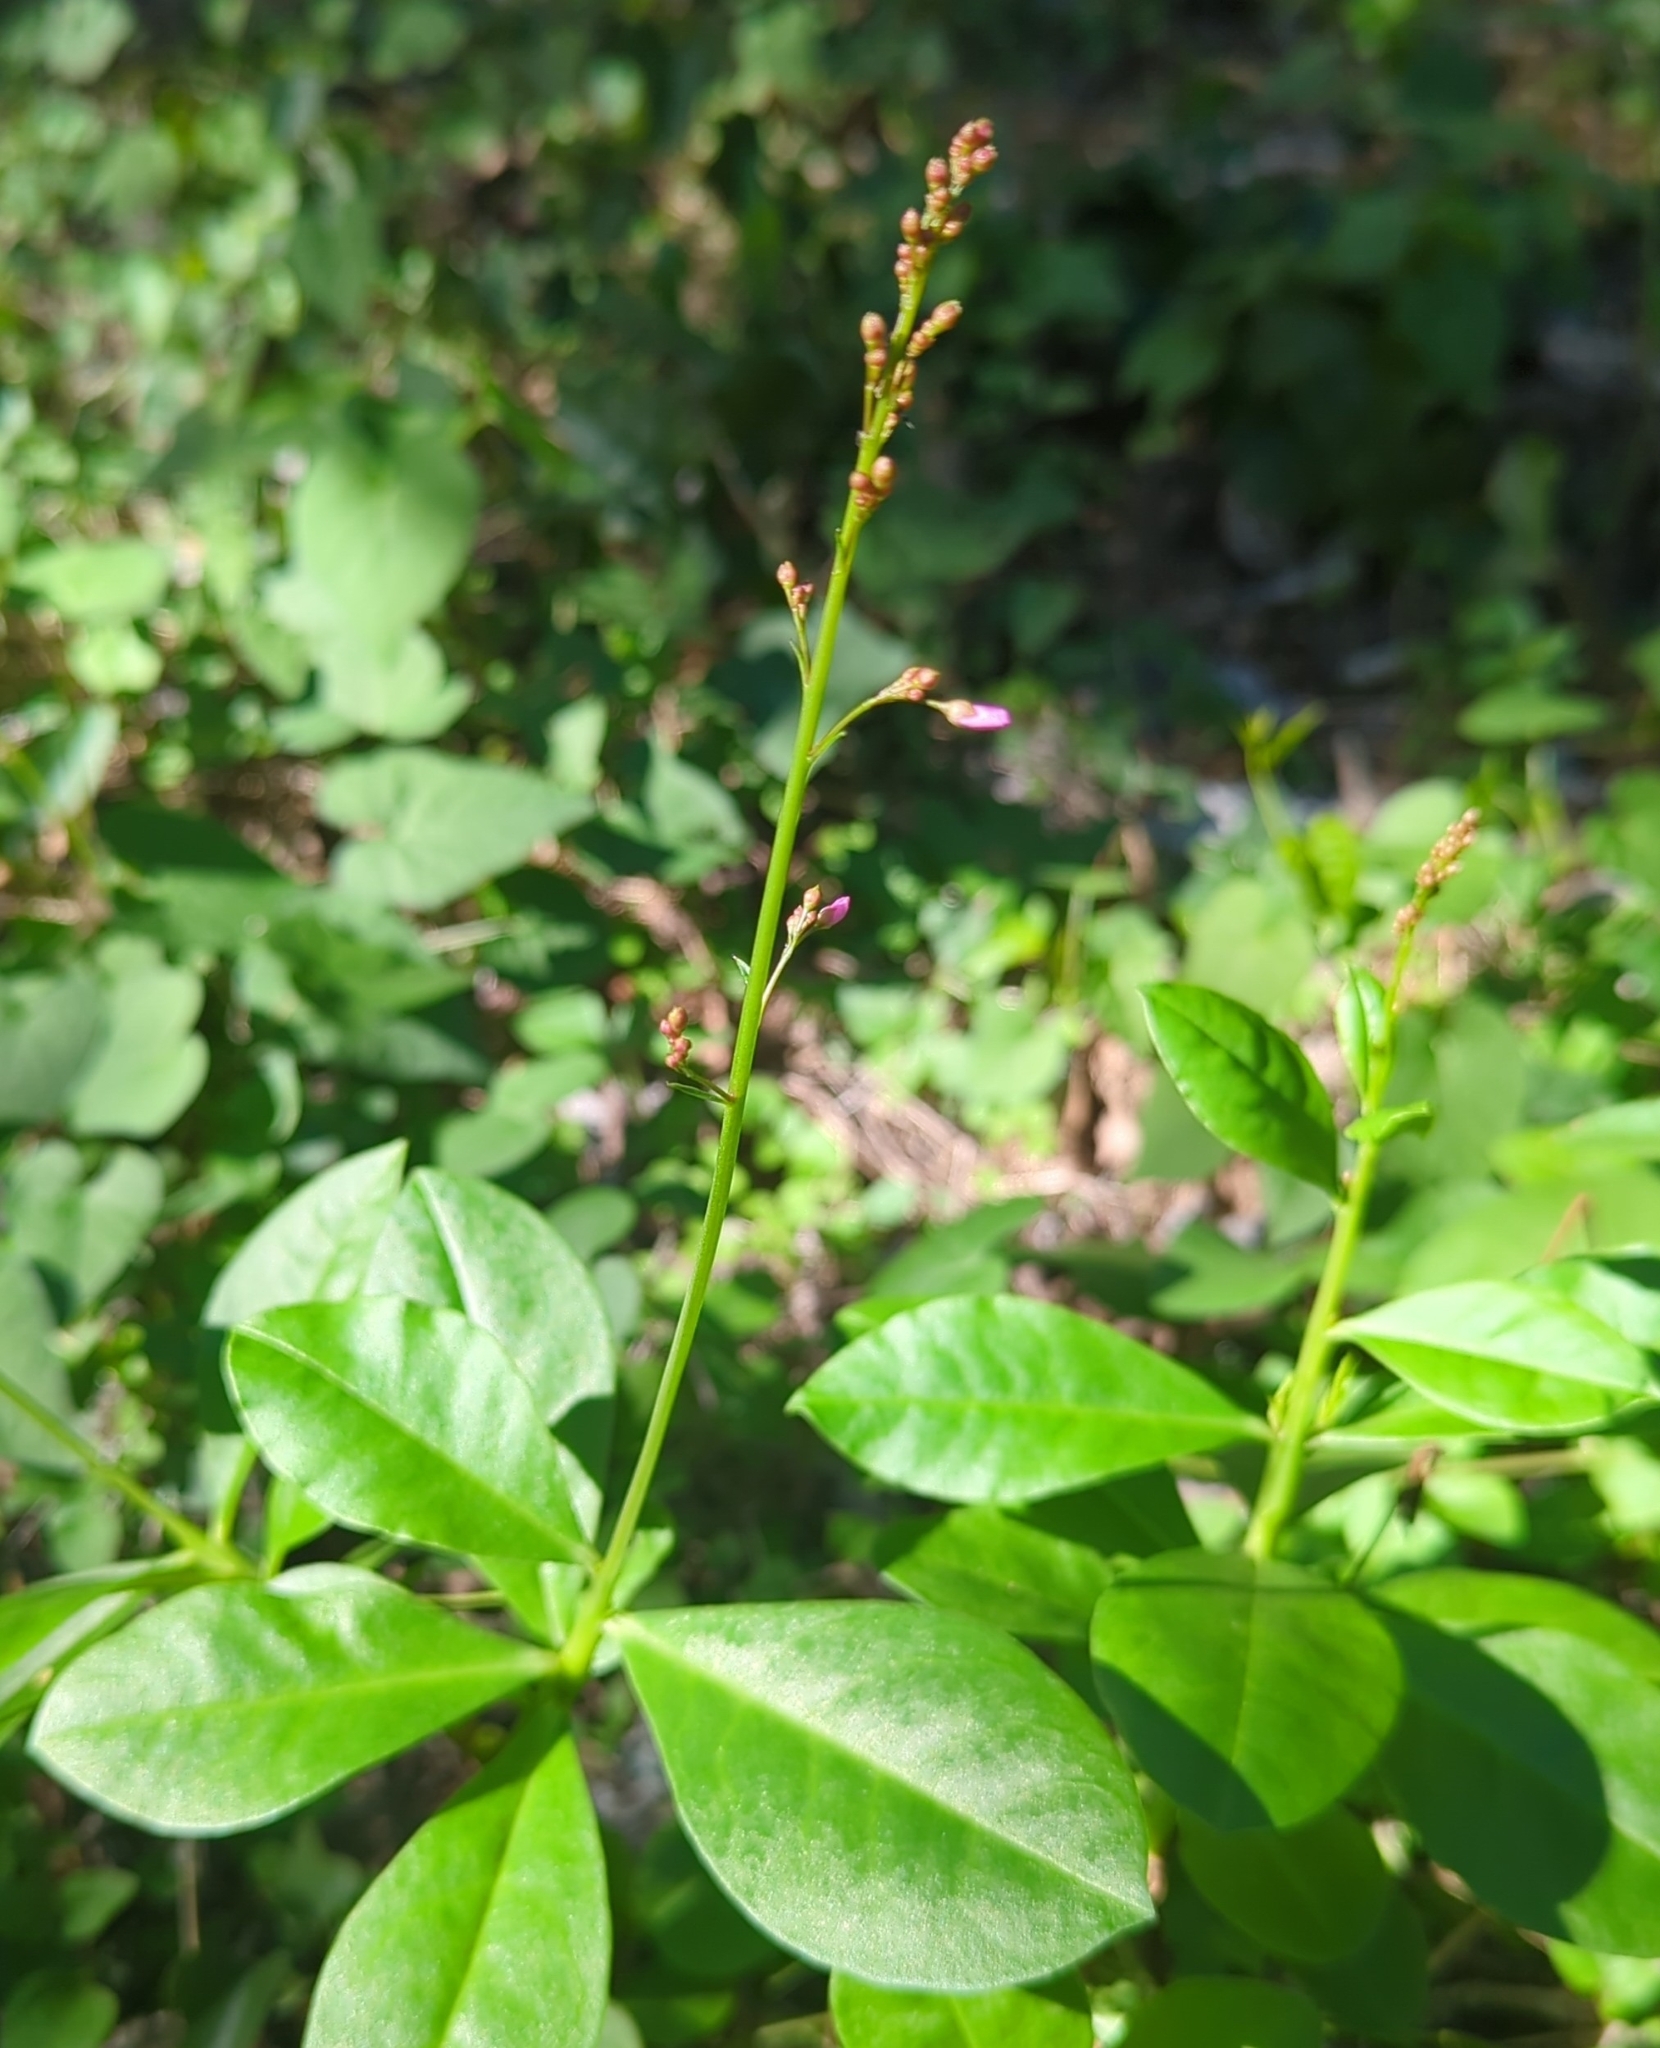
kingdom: Plantae
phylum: Tracheophyta
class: Magnoliopsida
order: Caryophyllales
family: Talinaceae
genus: Talinum
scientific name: Talinum paniculatum
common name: Jewels of opar
